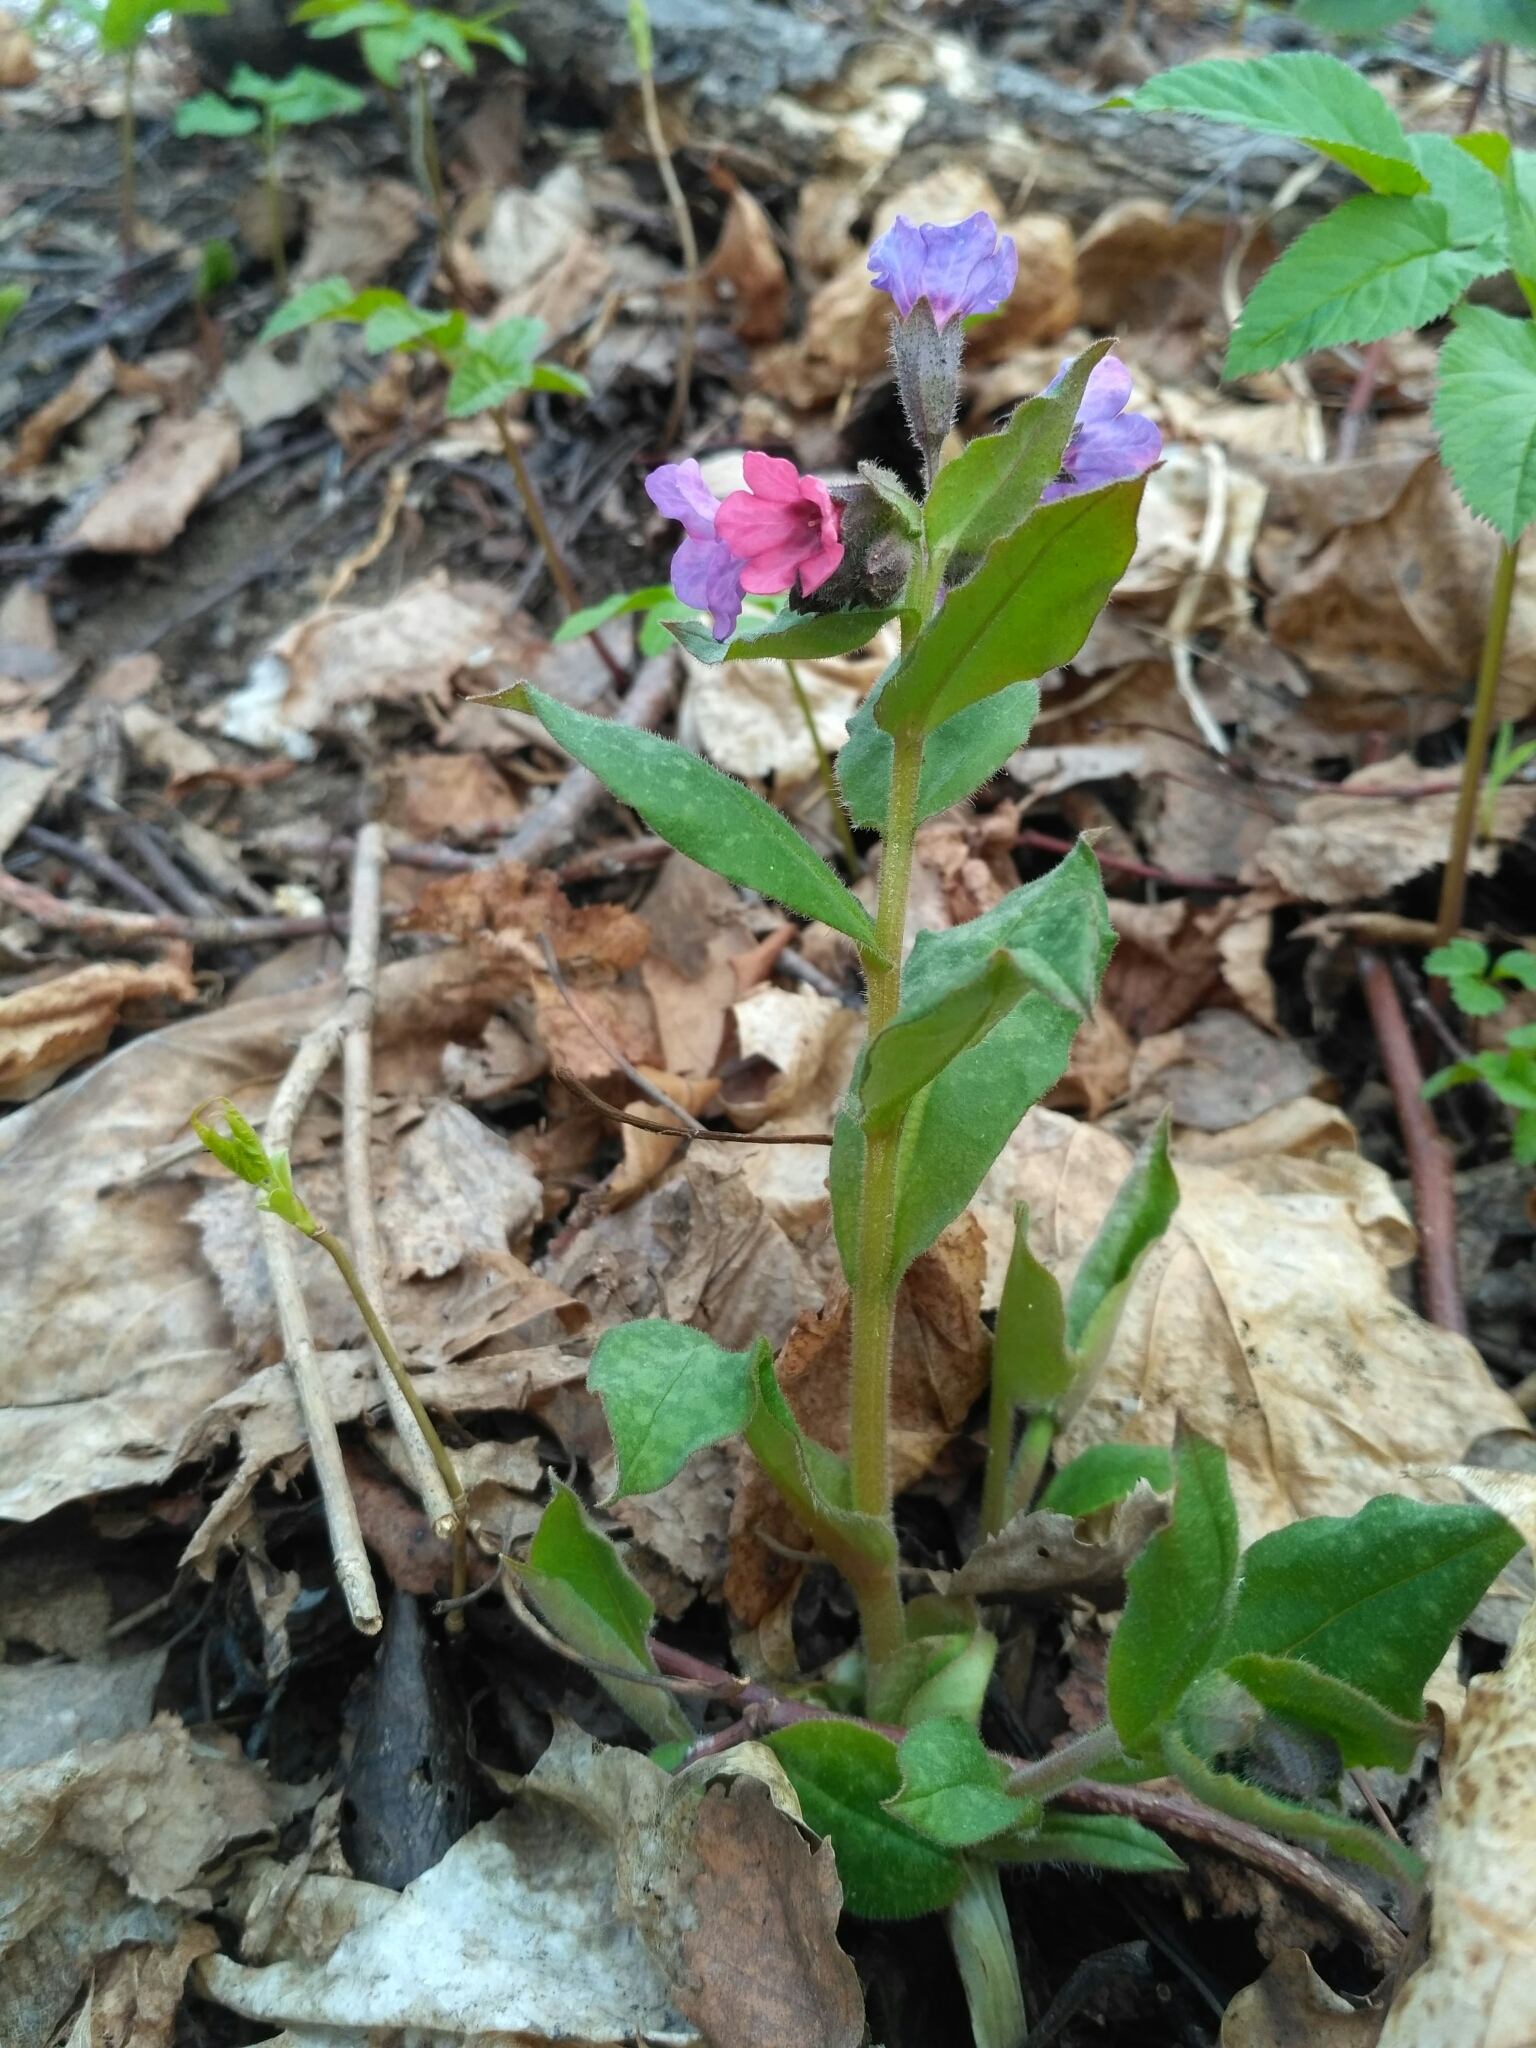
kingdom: Plantae
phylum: Tracheophyta
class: Magnoliopsida
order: Boraginales
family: Boraginaceae
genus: Pulmonaria
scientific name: Pulmonaria obscura
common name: Suffolk lungwort
